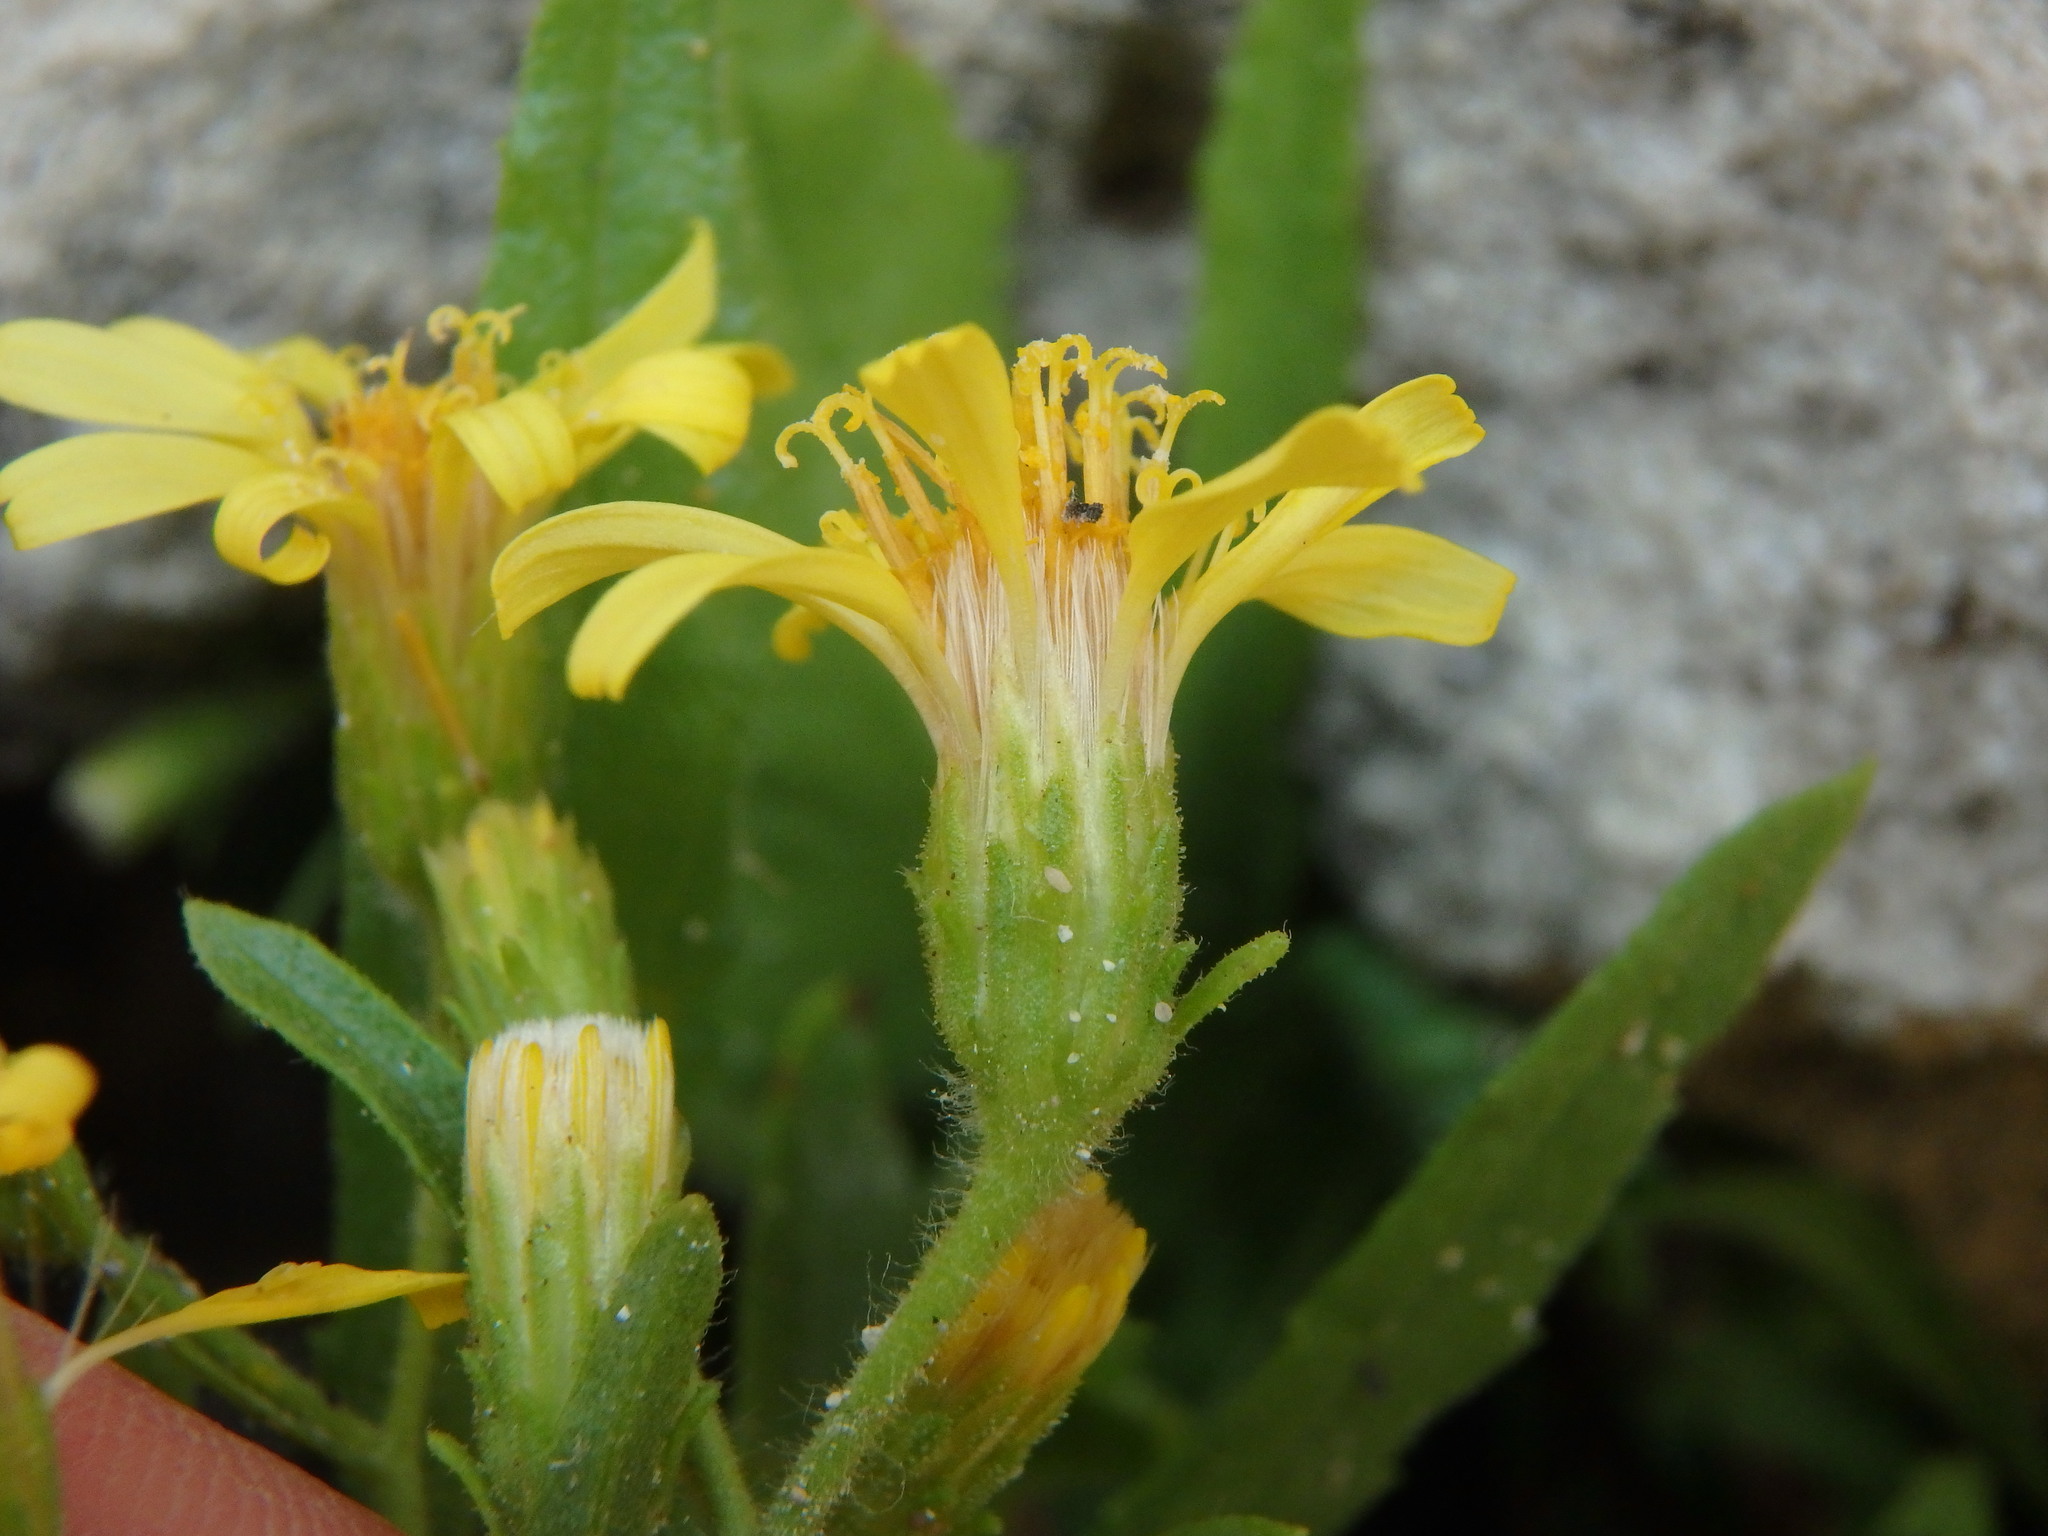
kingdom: Plantae
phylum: Tracheophyta
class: Magnoliopsida
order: Asterales
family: Asteraceae
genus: Dittrichia
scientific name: Dittrichia viscosa
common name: Woody fleabane
